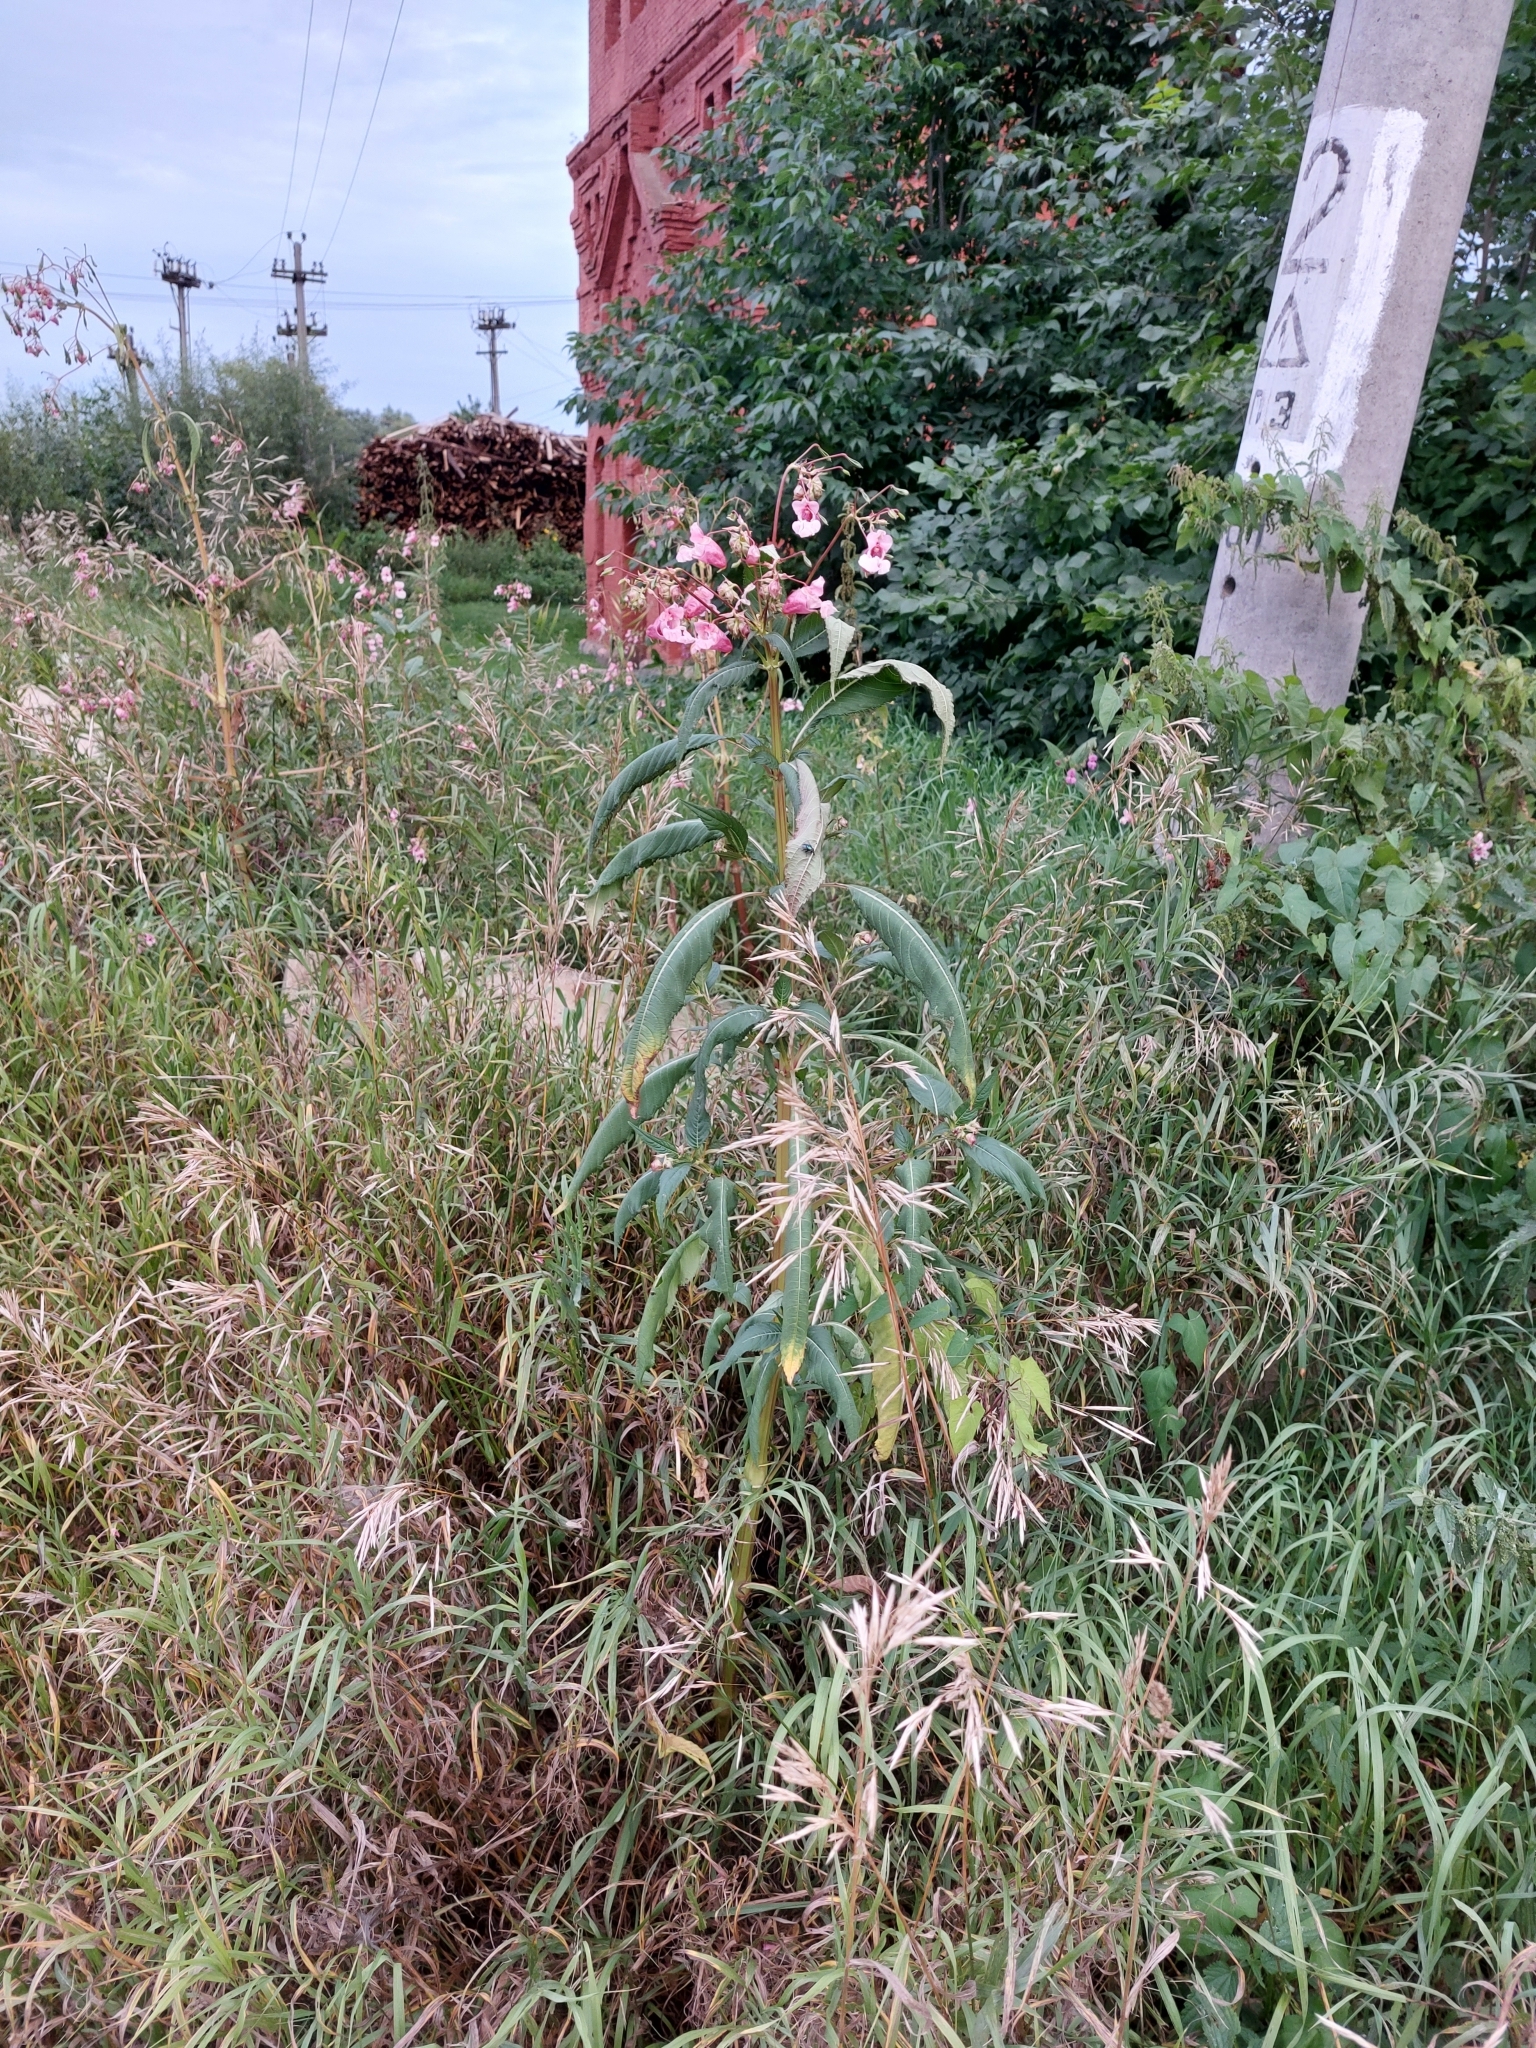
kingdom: Plantae
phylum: Tracheophyta
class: Magnoliopsida
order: Ericales
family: Balsaminaceae
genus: Impatiens
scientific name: Impatiens glandulifera
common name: Himalayan balsam
